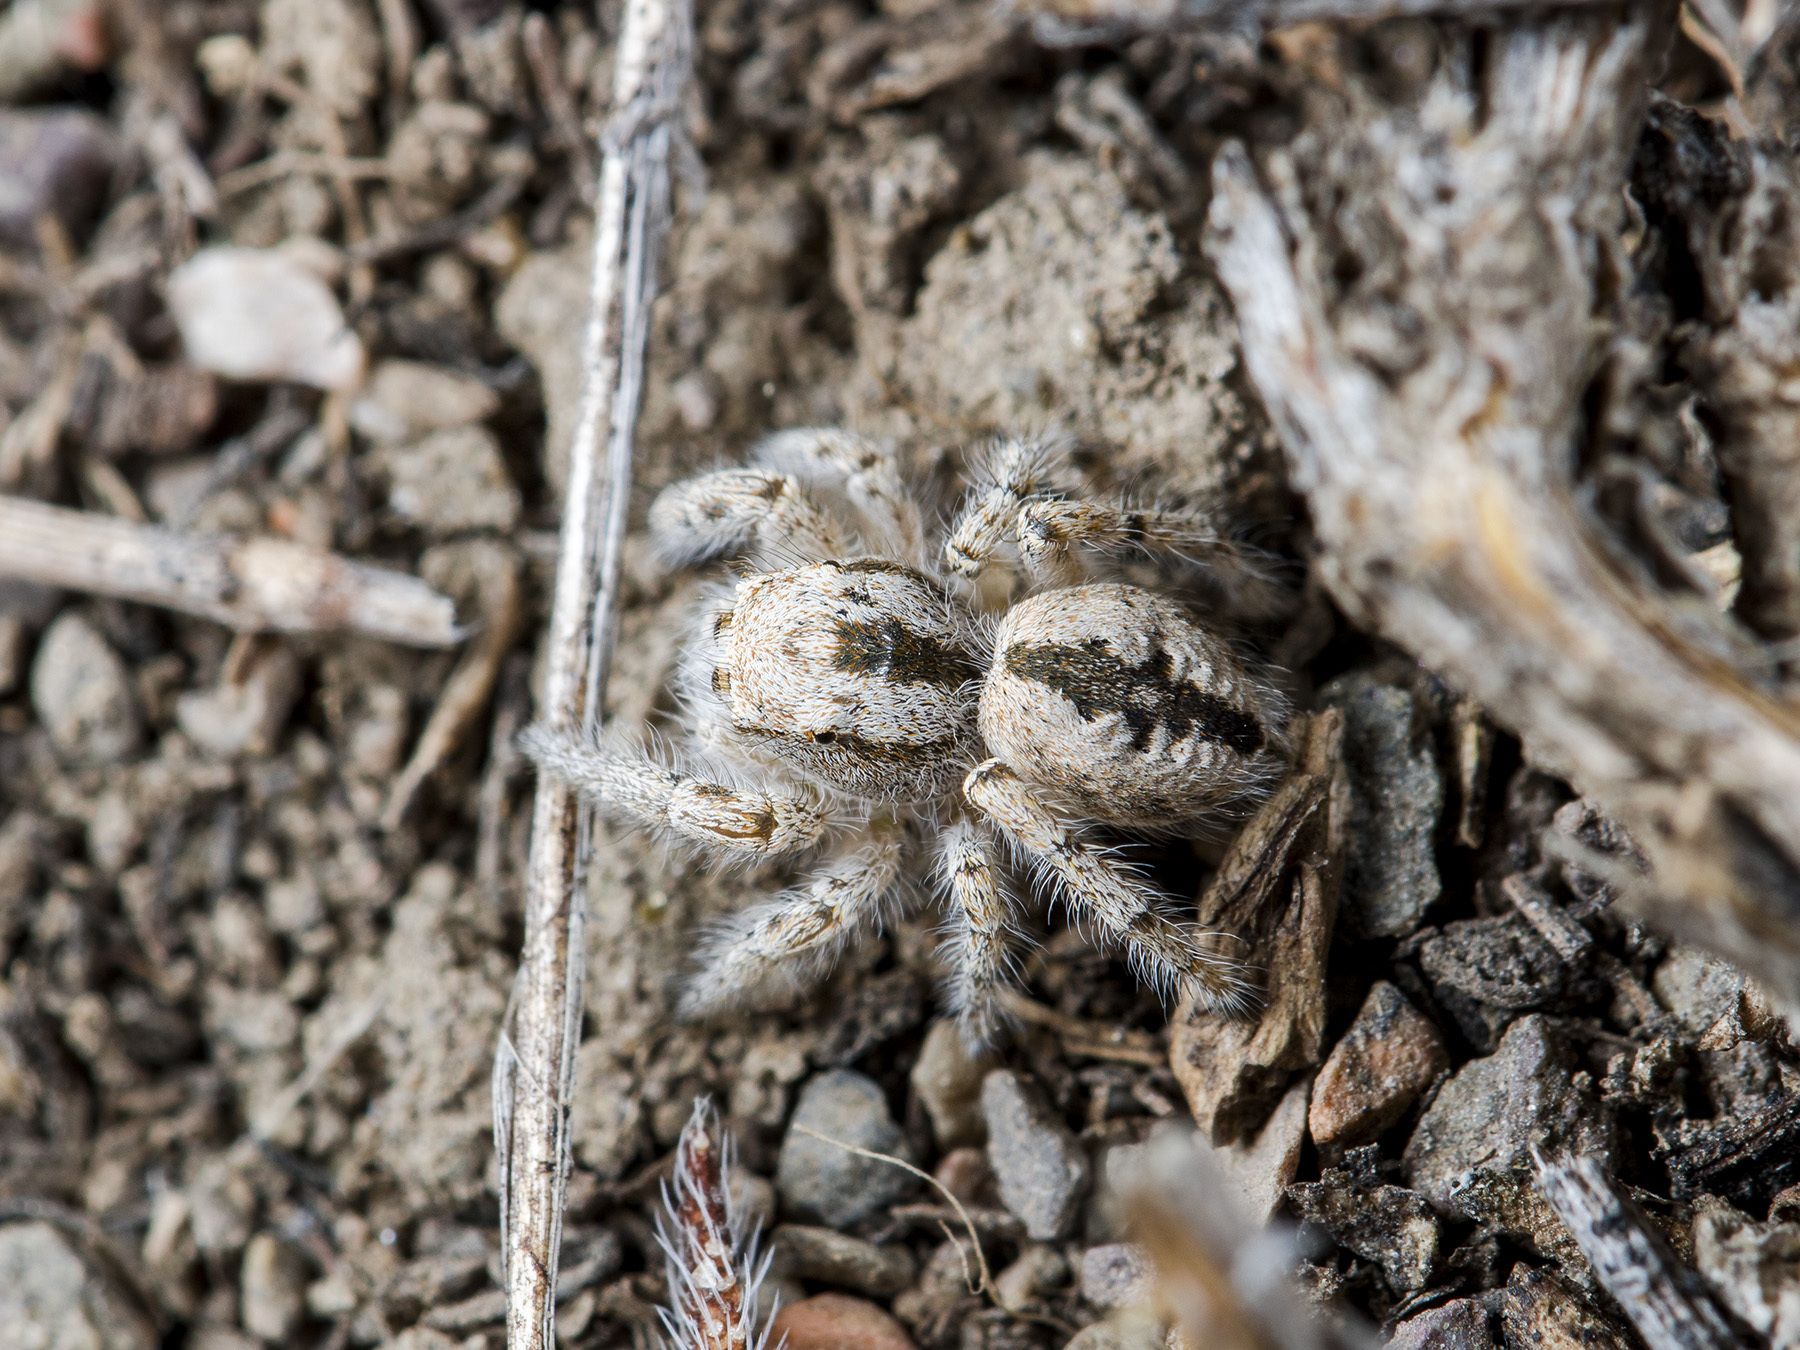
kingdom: Animalia
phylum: Arthropoda
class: Arachnida
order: Araneae
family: Salticidae
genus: Pseudomogrus
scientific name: Pseudomogrus zhilgaensis
